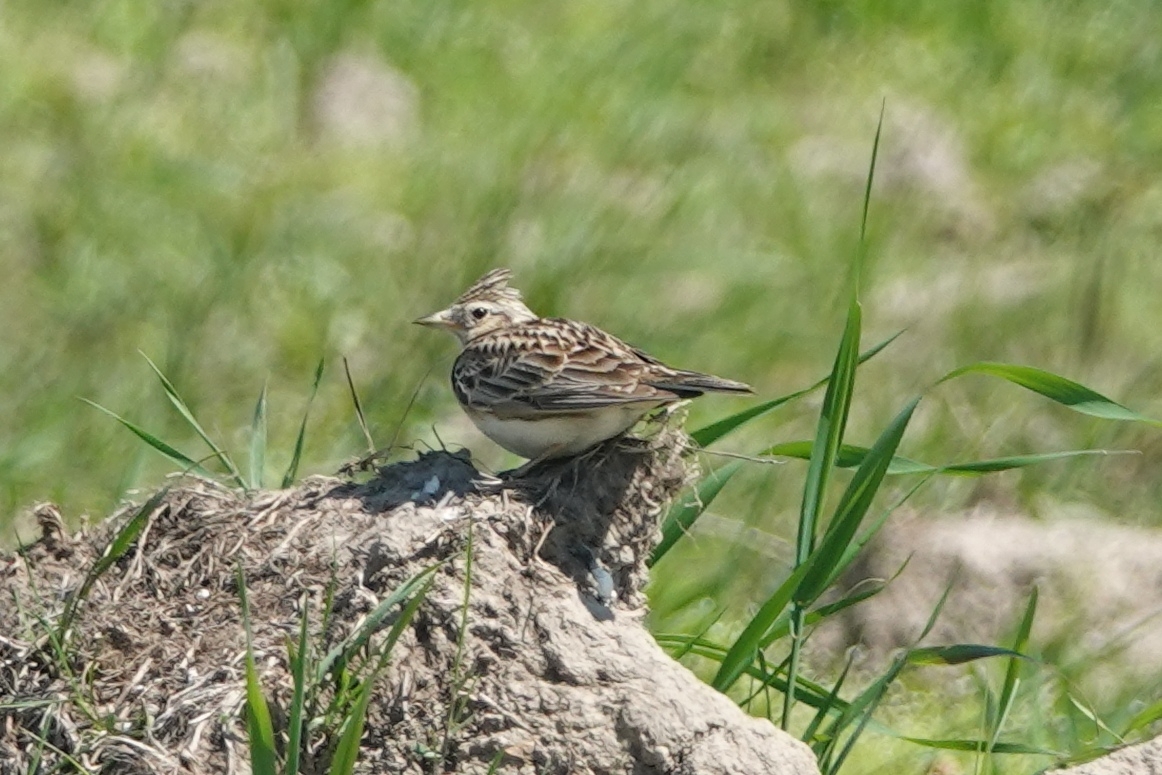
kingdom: Animalia
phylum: Chordata
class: Aves
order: Passeriformes
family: Alaudidae
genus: Alauda
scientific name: Alauda arvensis
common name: Eurasian skylark
